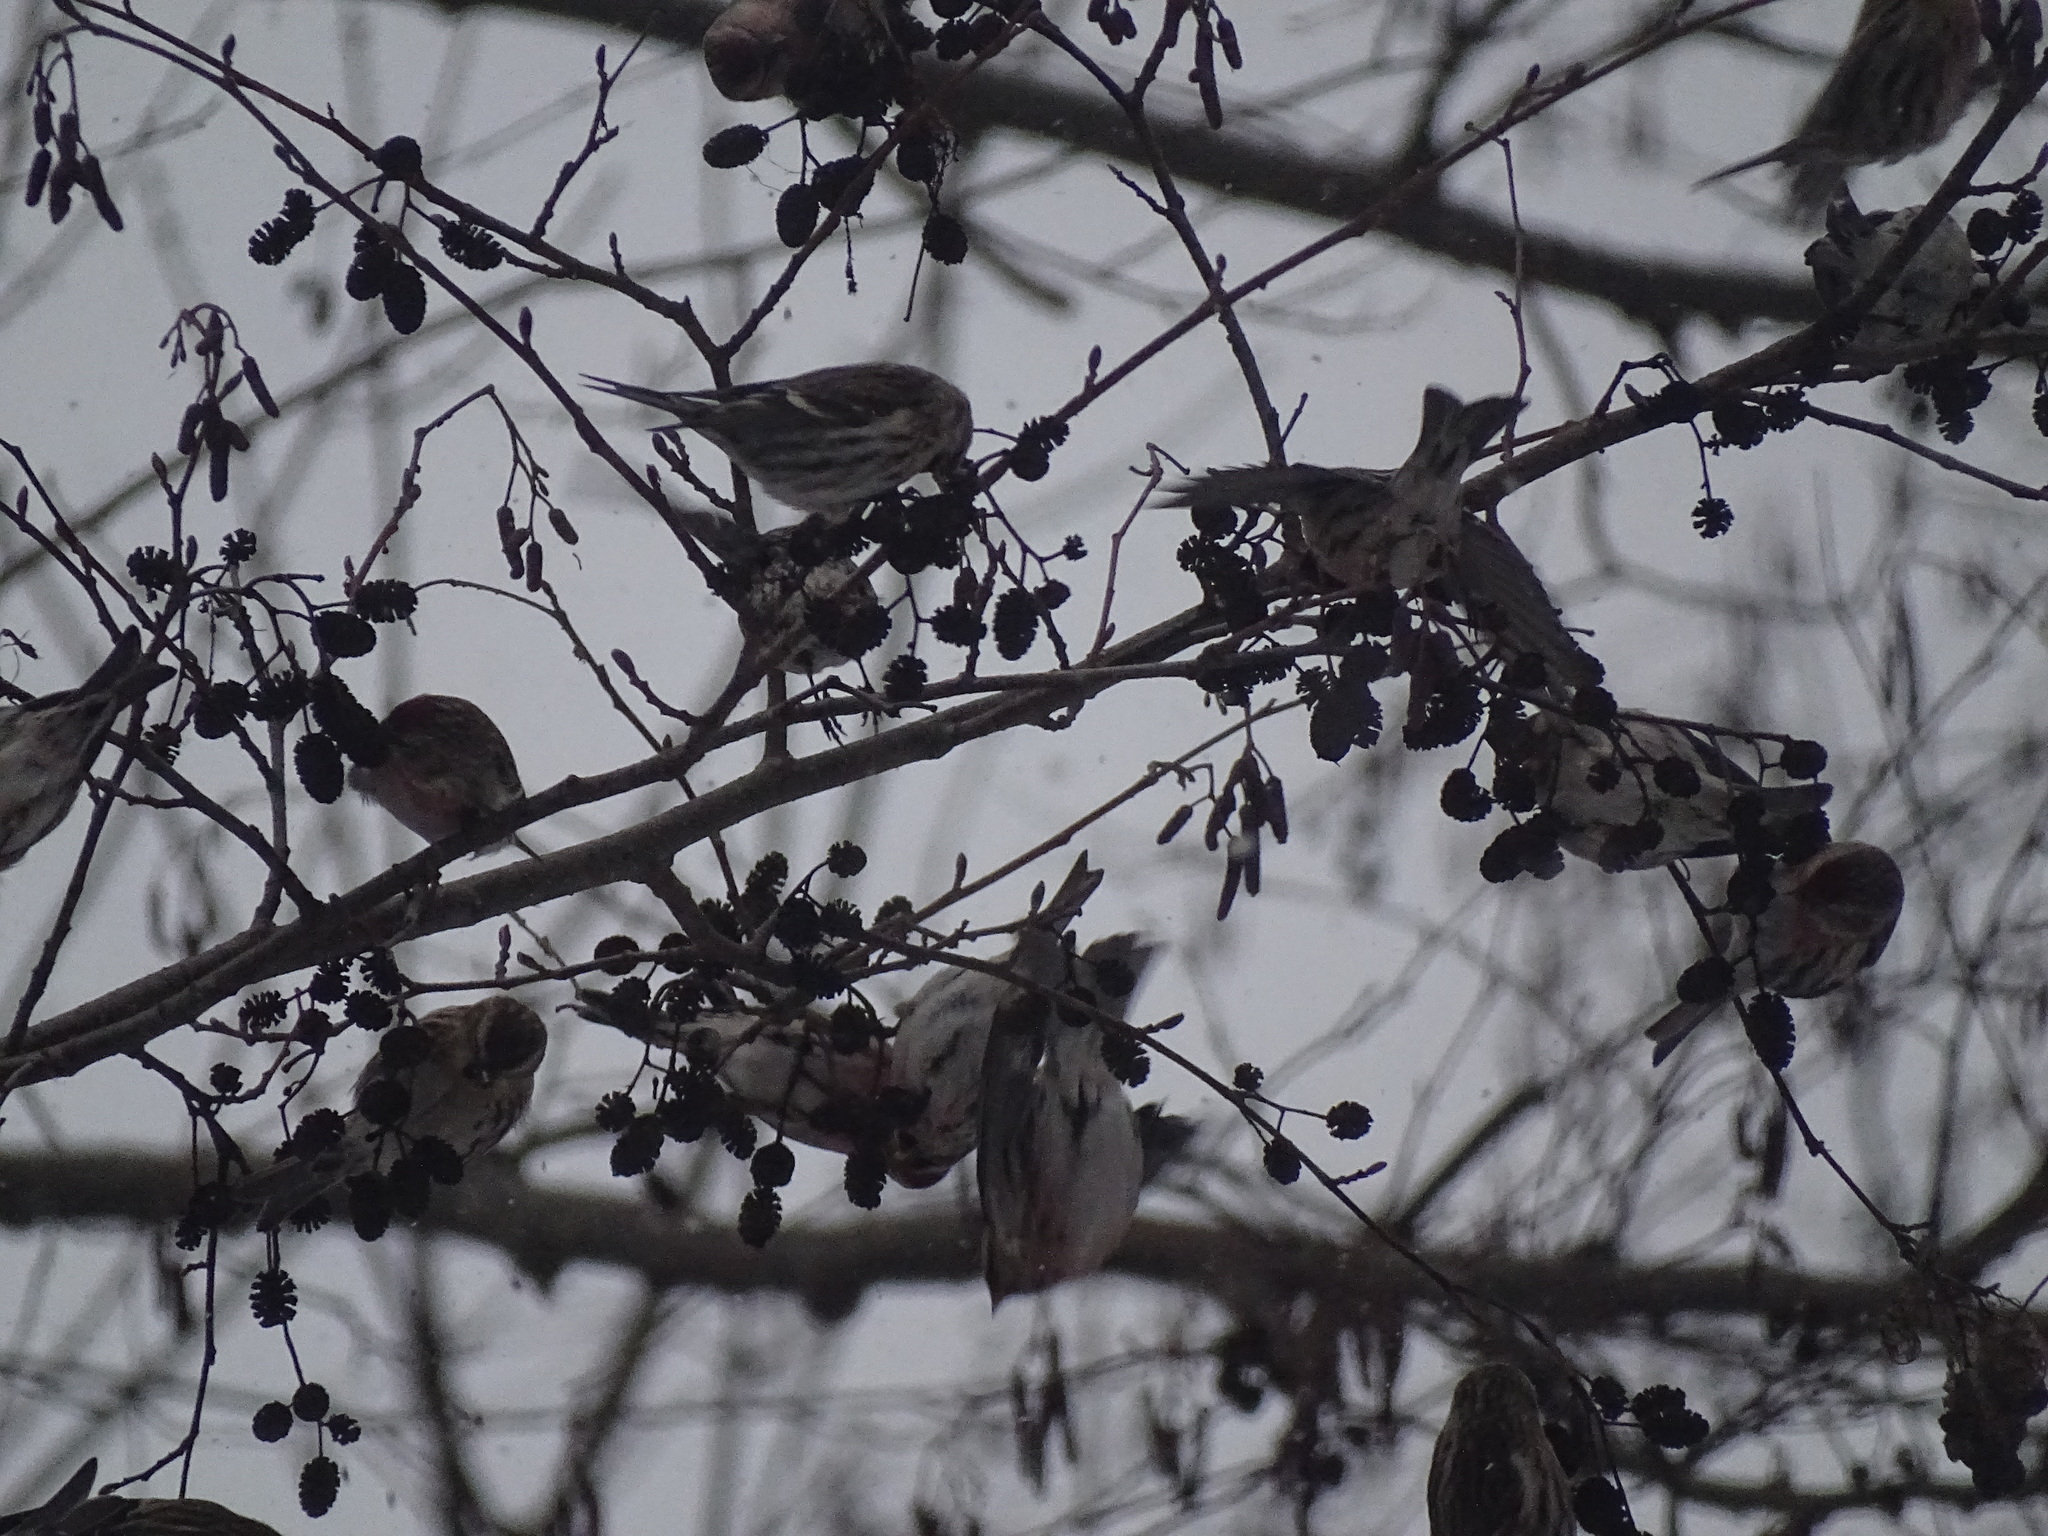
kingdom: Animalia
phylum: Chordata
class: Aves
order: Passeriformes
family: Fringillidae
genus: Acanthis
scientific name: Acanthis flammea
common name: Common redpoll
